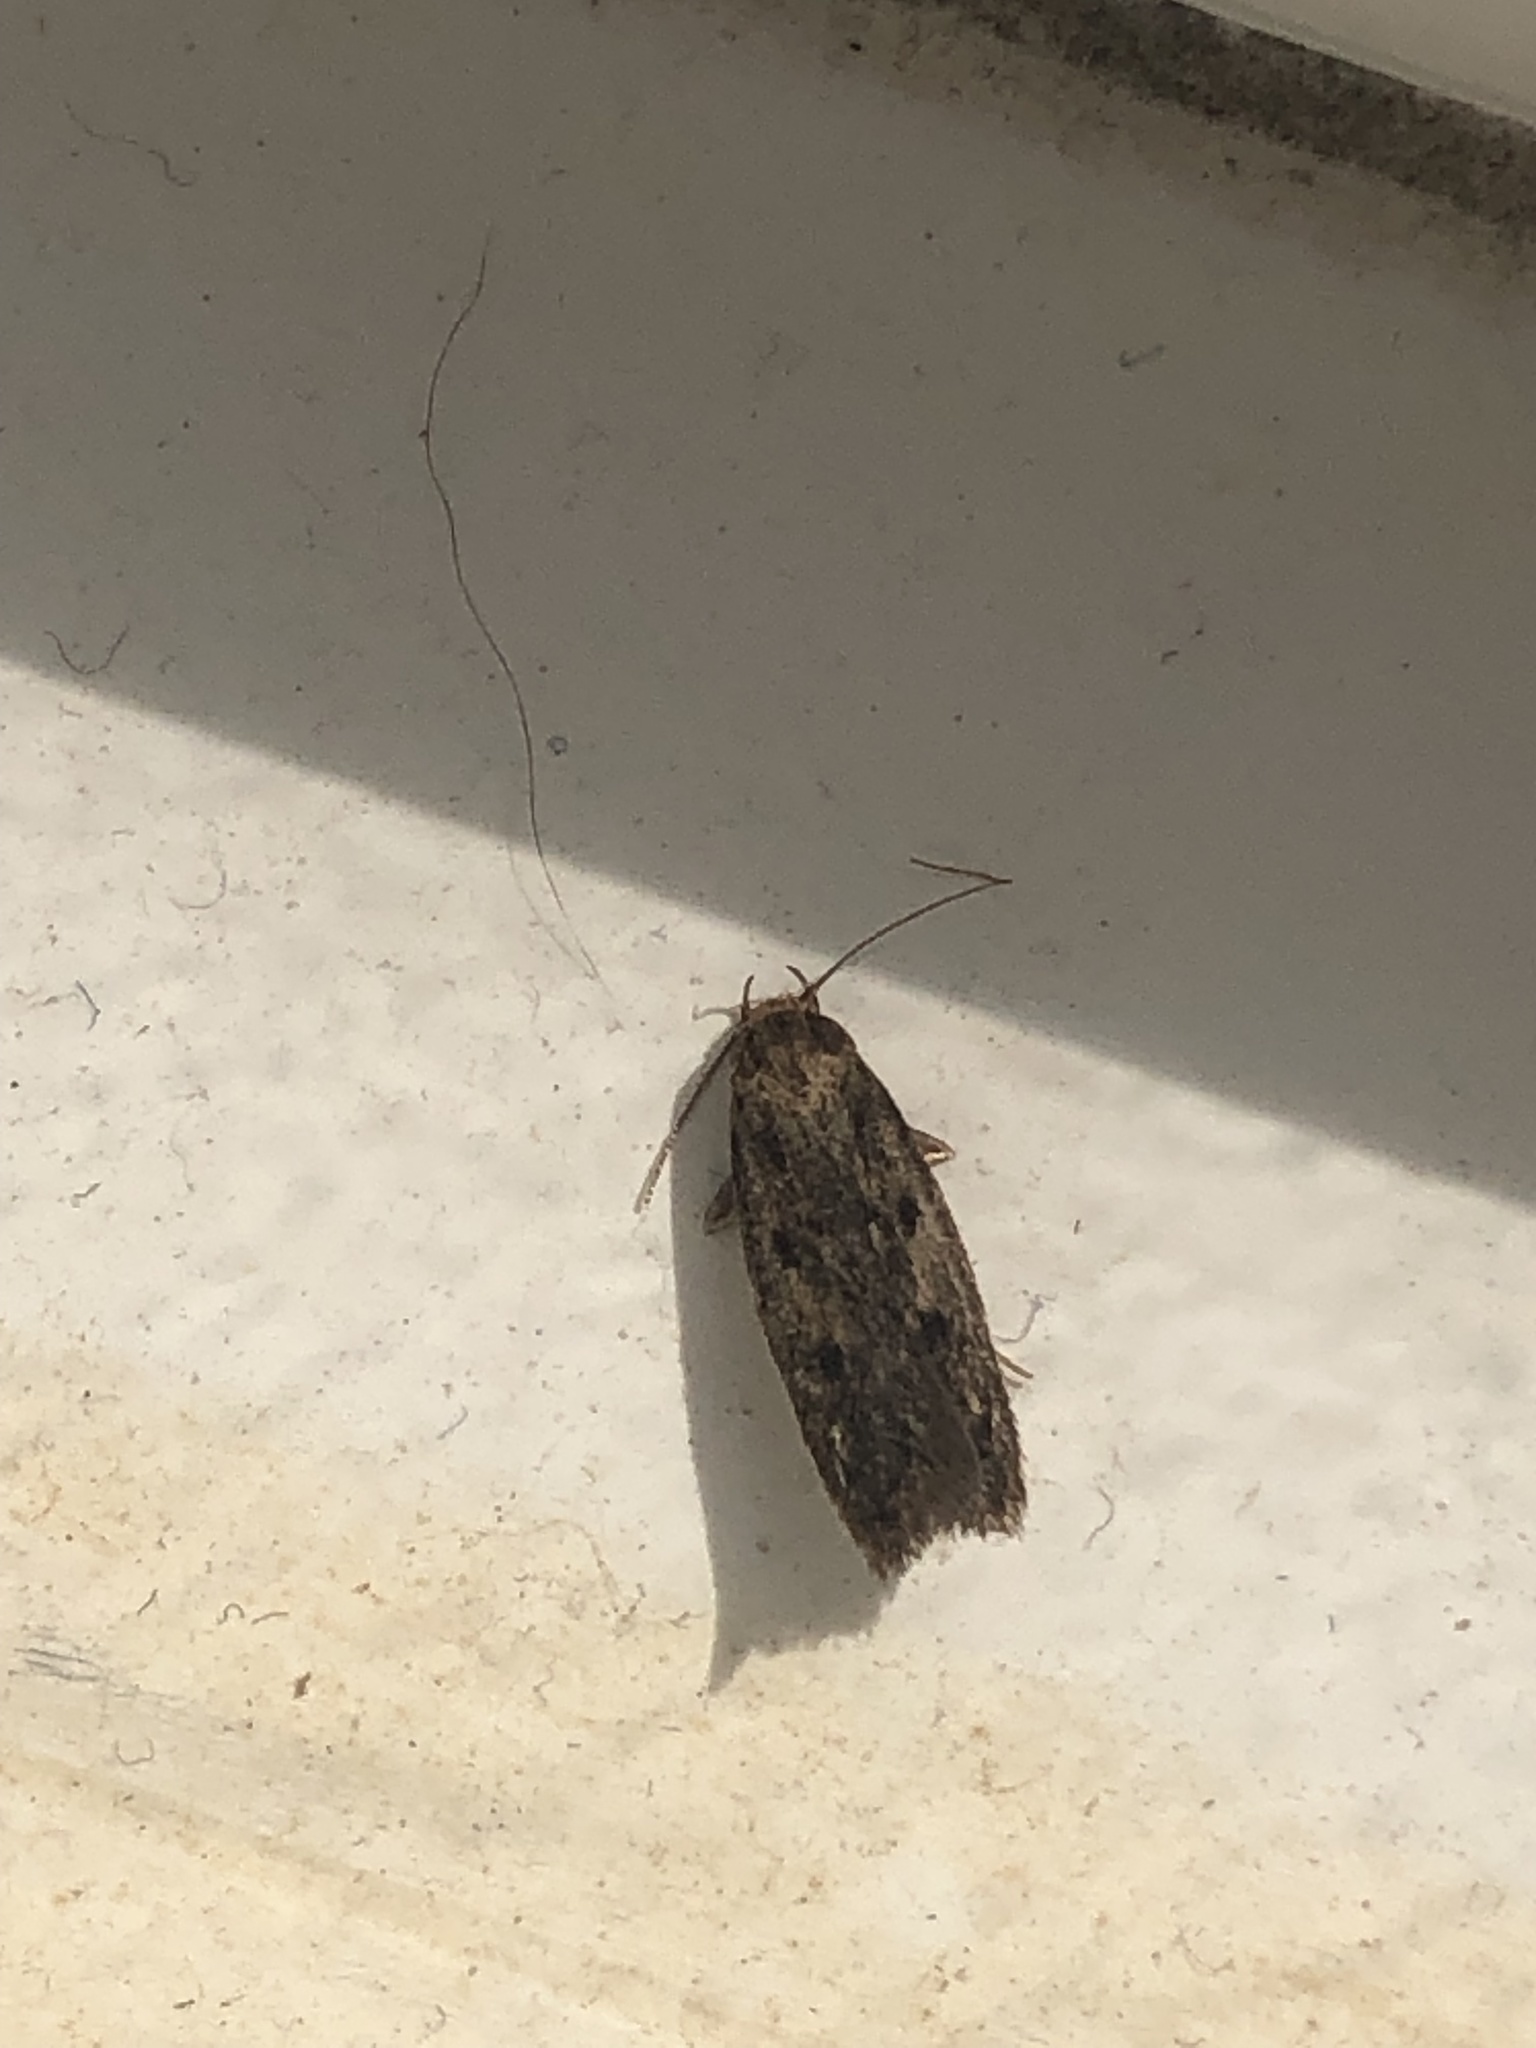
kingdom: Animalia
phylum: Arthropoda
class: Insecta
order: Lepidoptera
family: Oecophoridae
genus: Hofmannophila
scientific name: Hofmannophila pseudospretella
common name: Brown house moth
